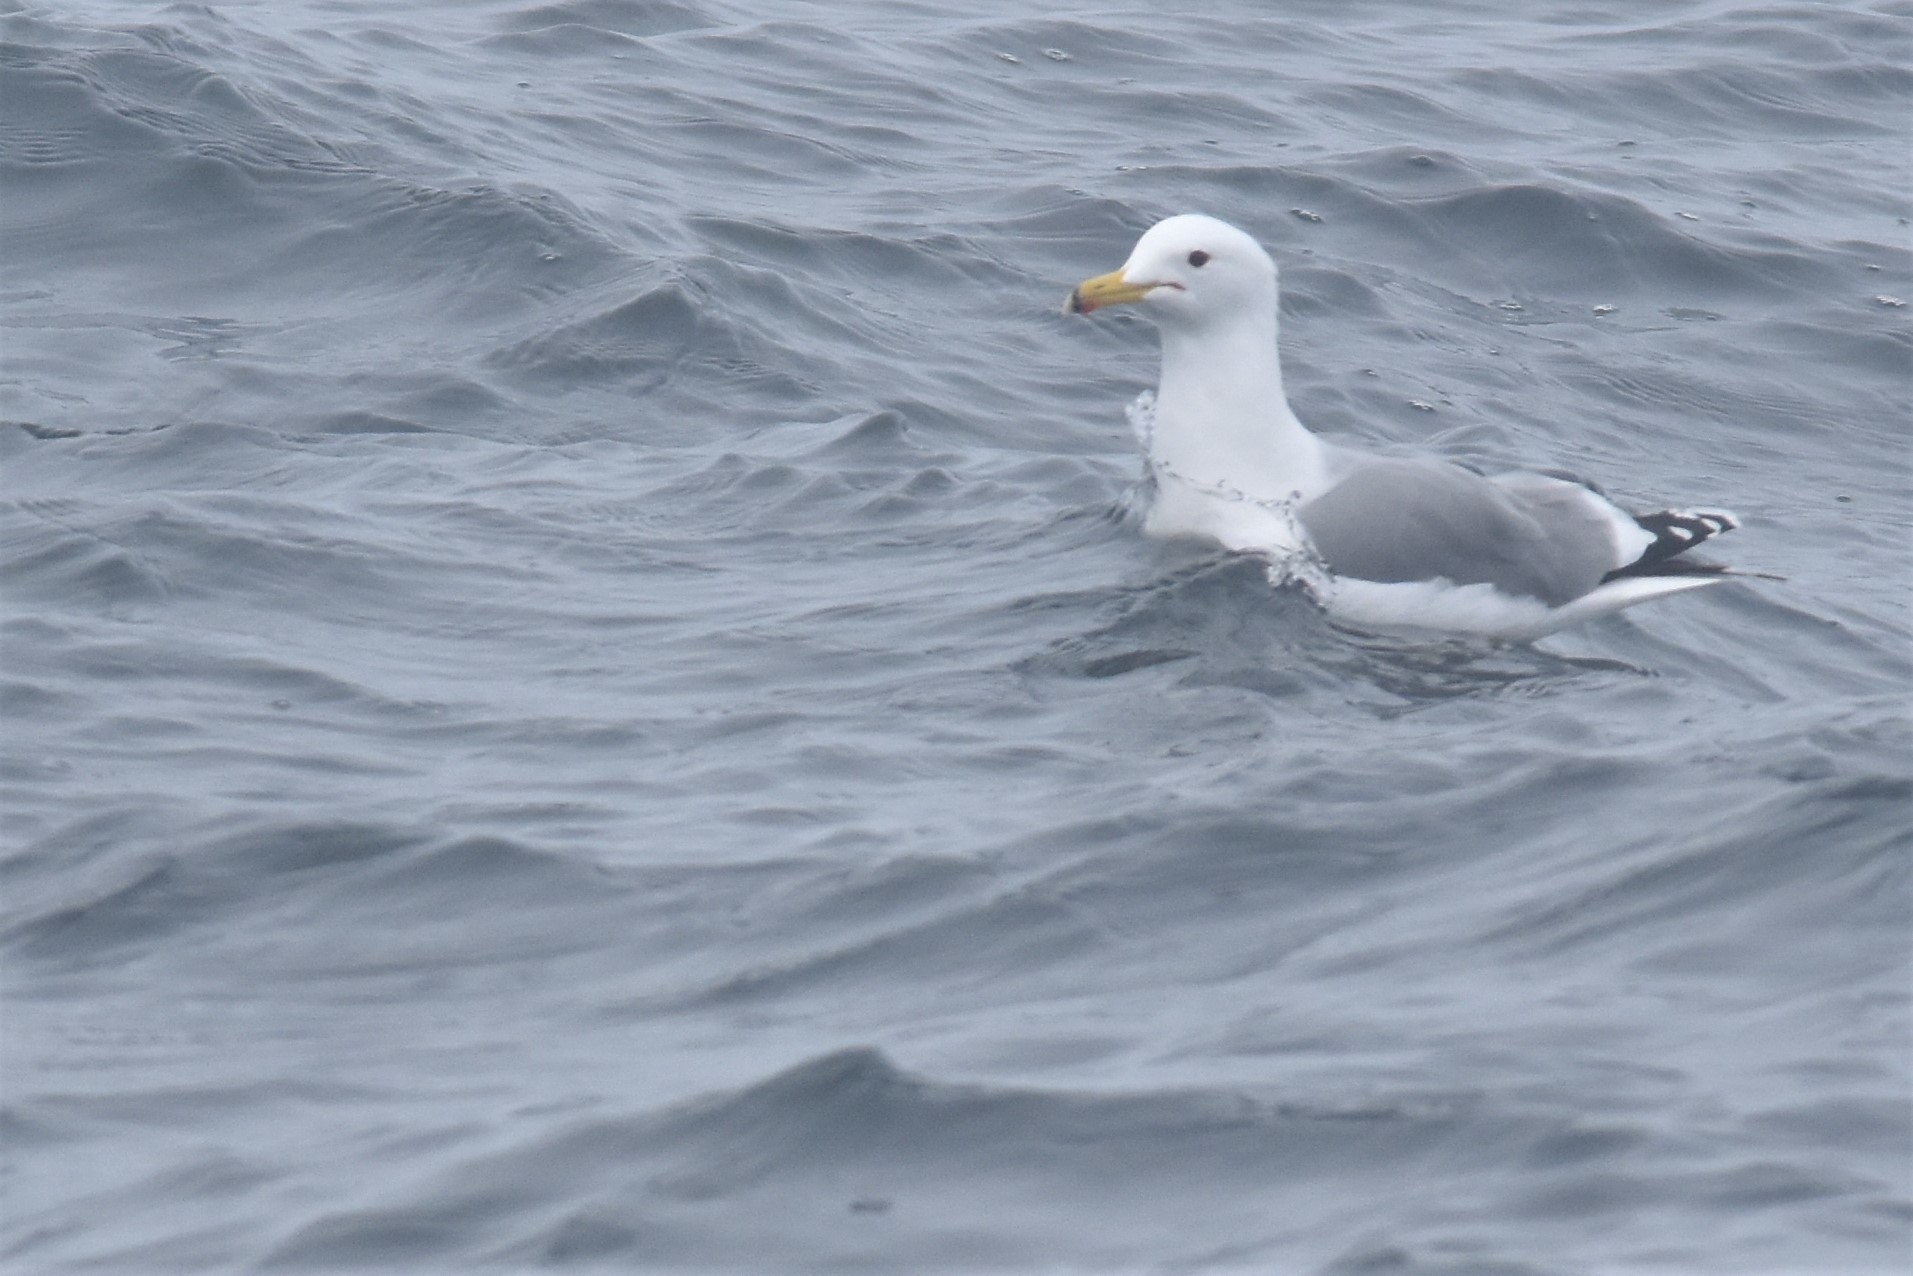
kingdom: Animalia
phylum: Chordata
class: Aves
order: Charadriiformes
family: Laridae
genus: Larus
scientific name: Larus californicus
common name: California gull
